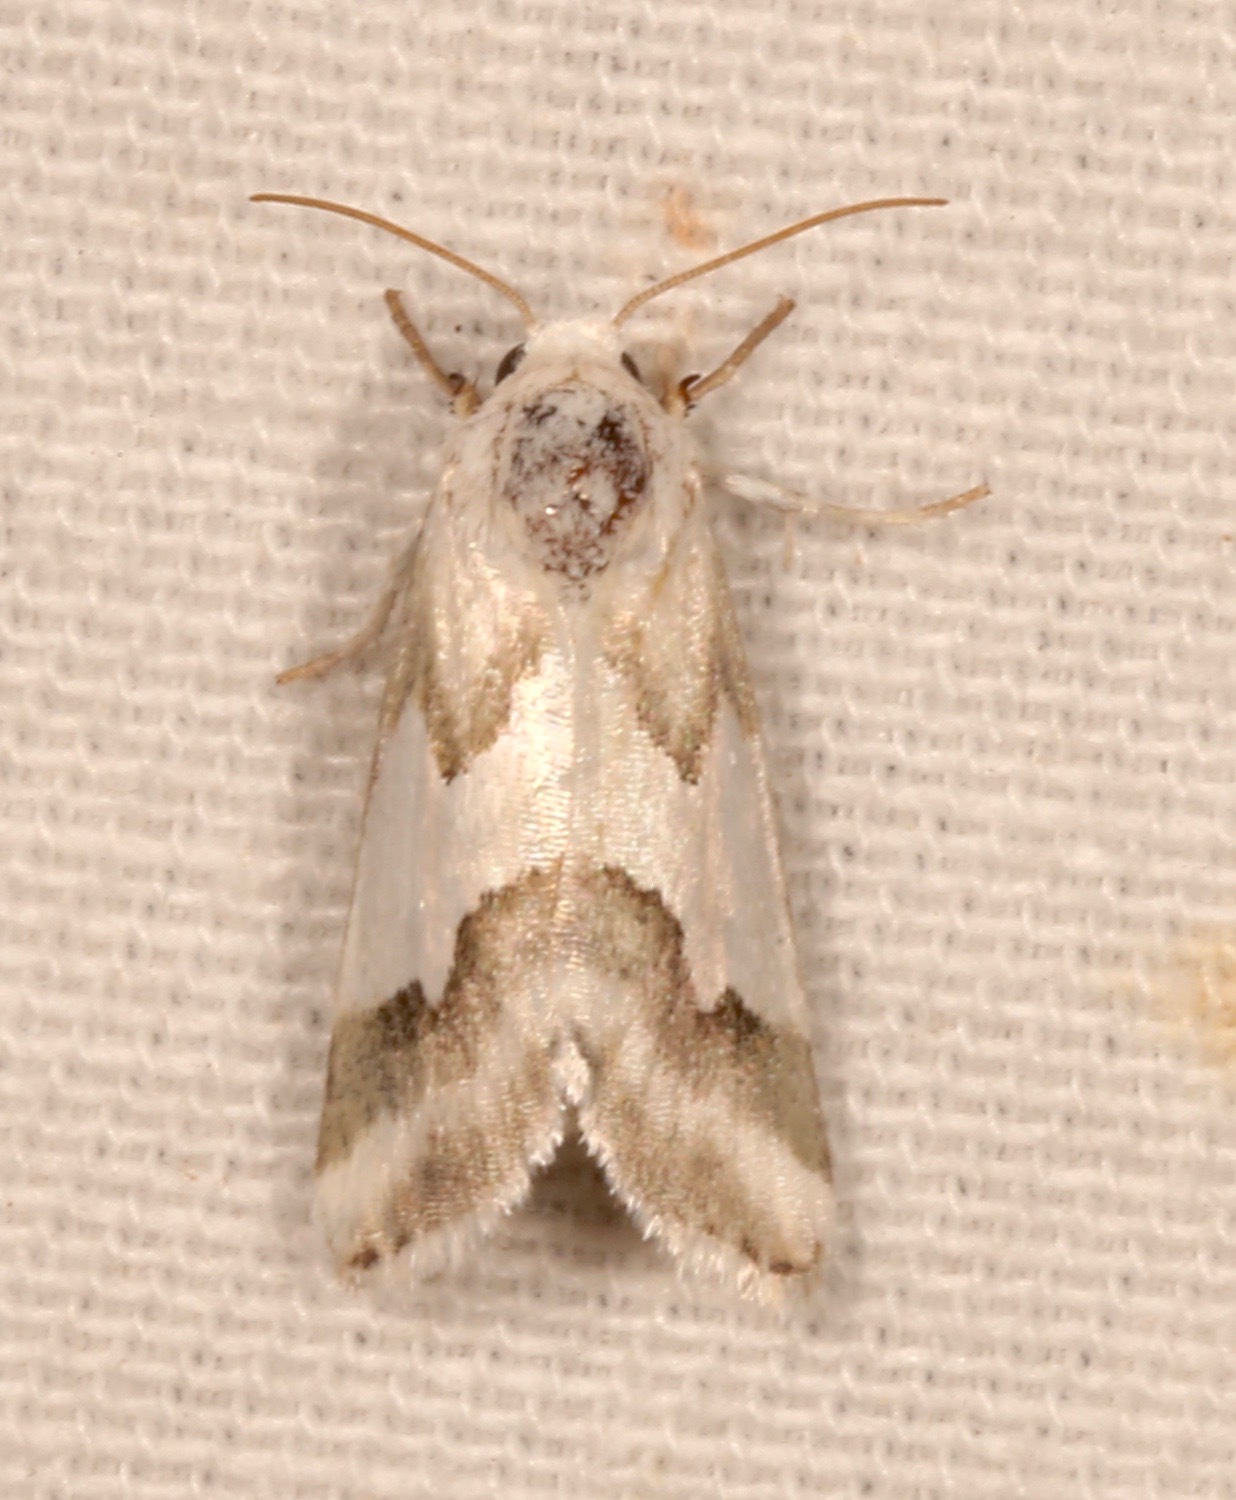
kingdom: Animalia
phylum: Arthropoda
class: Insecta
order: Lepidoptera
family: Noctuidae
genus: Schinia
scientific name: Schinia hulstia
